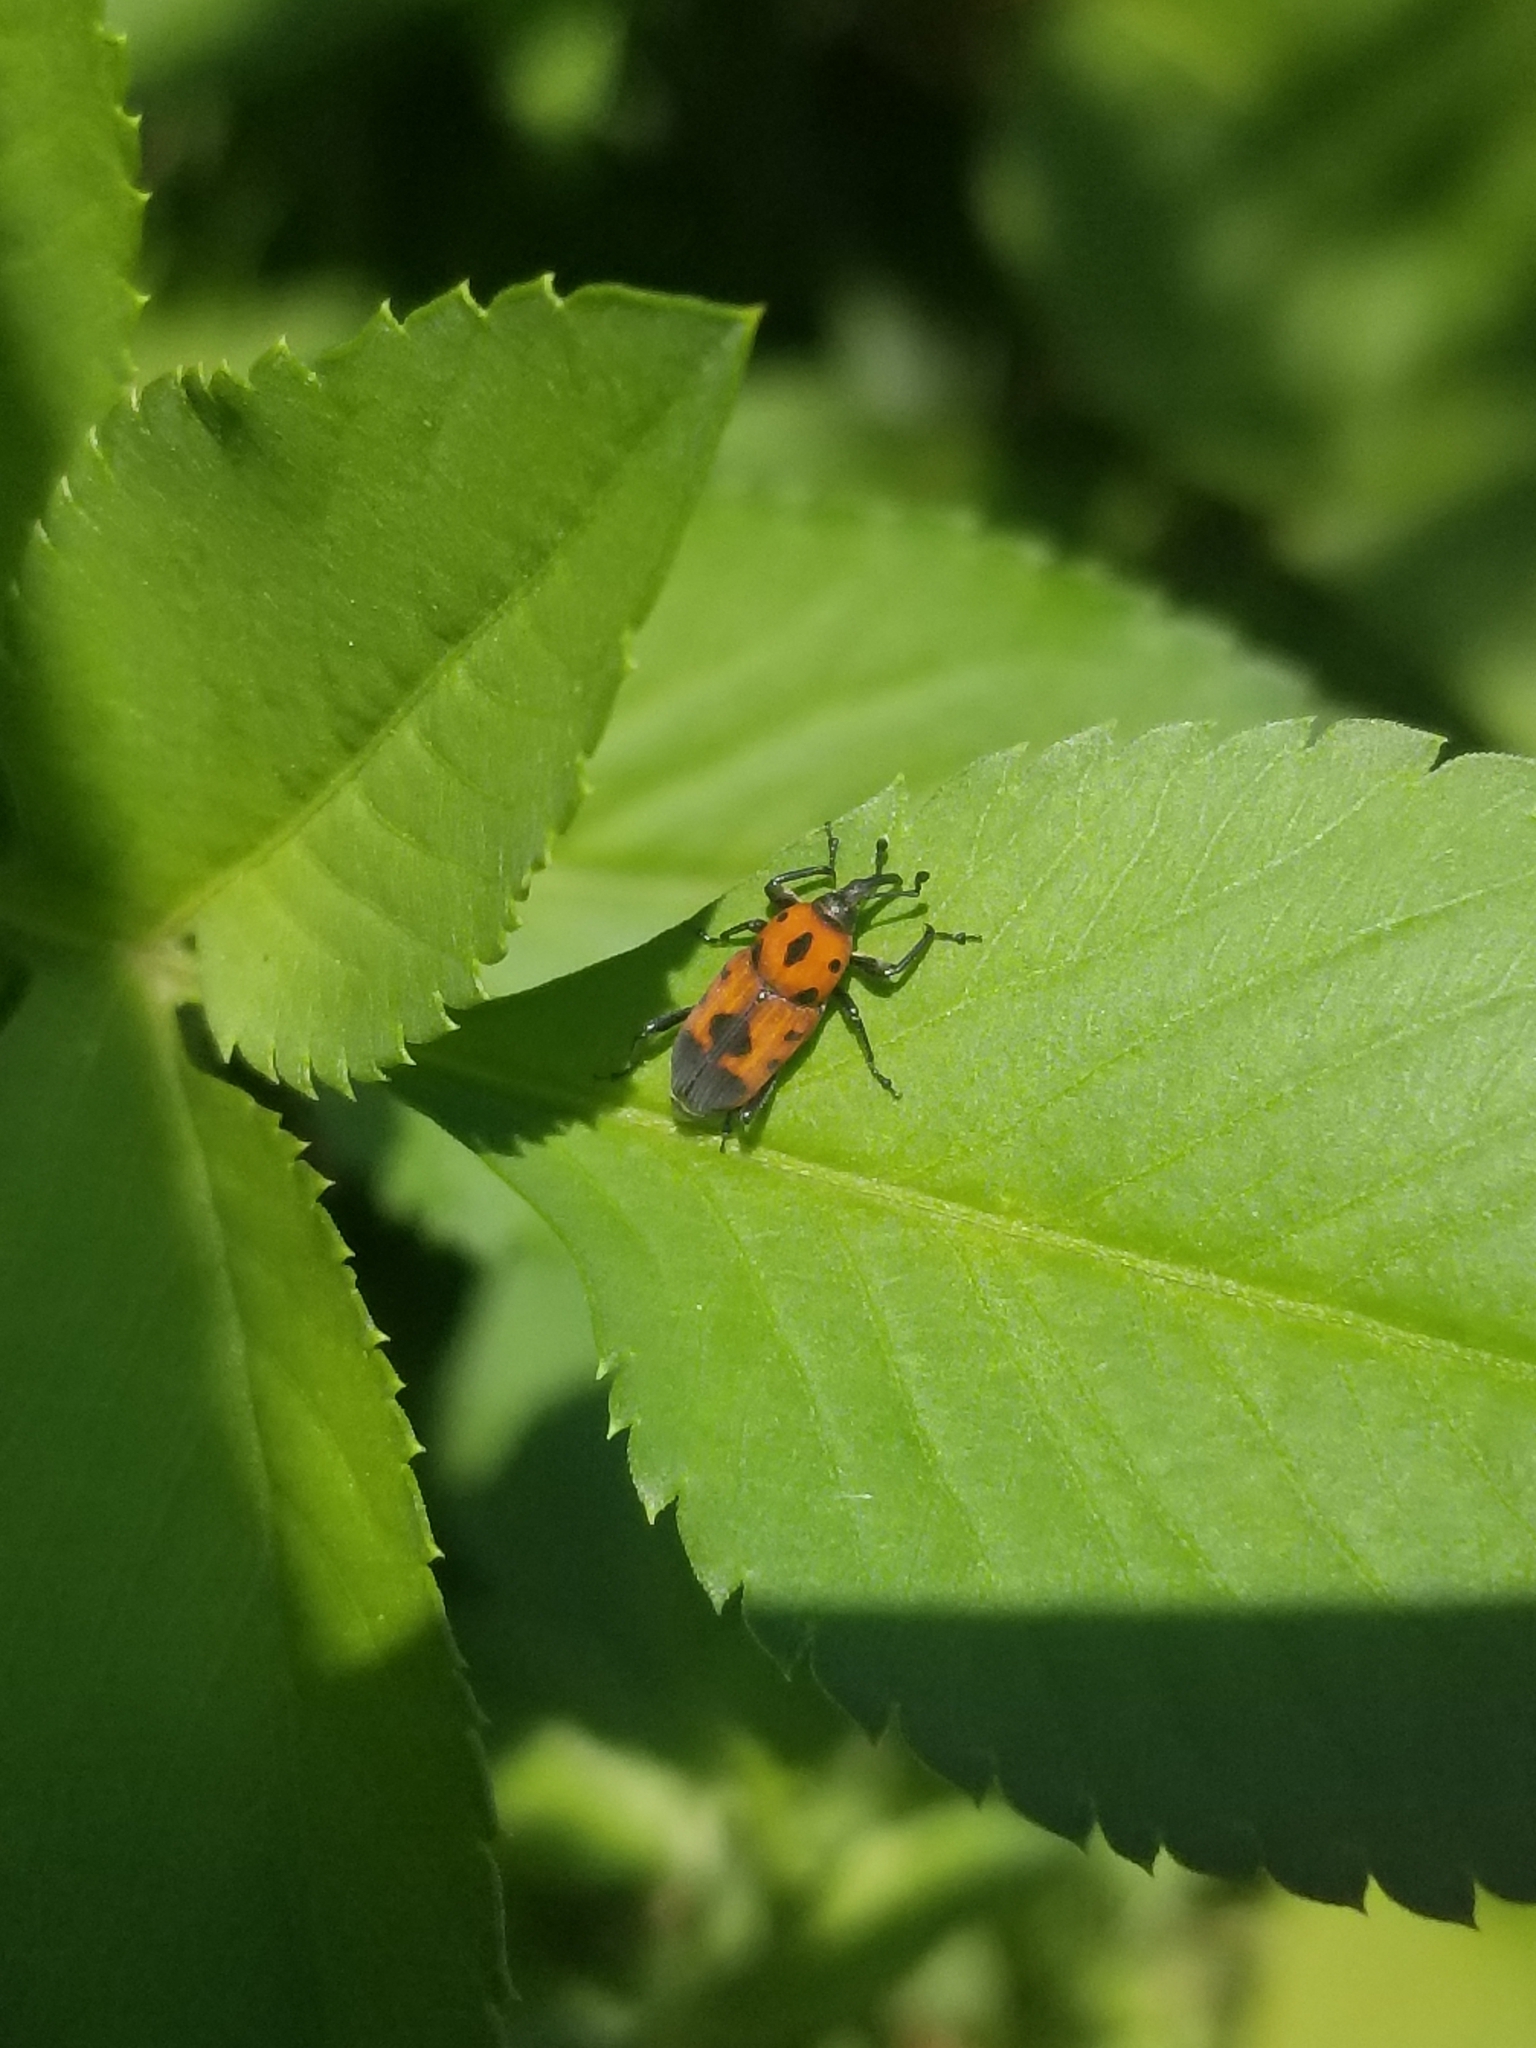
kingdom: Animalia
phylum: Arthropoda
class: Insecta
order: Coleoptera
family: Dryophthoridae
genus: Rhodobaenus
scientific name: Rhodobaenus quinquepunctatus
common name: Cocklebur weevil
